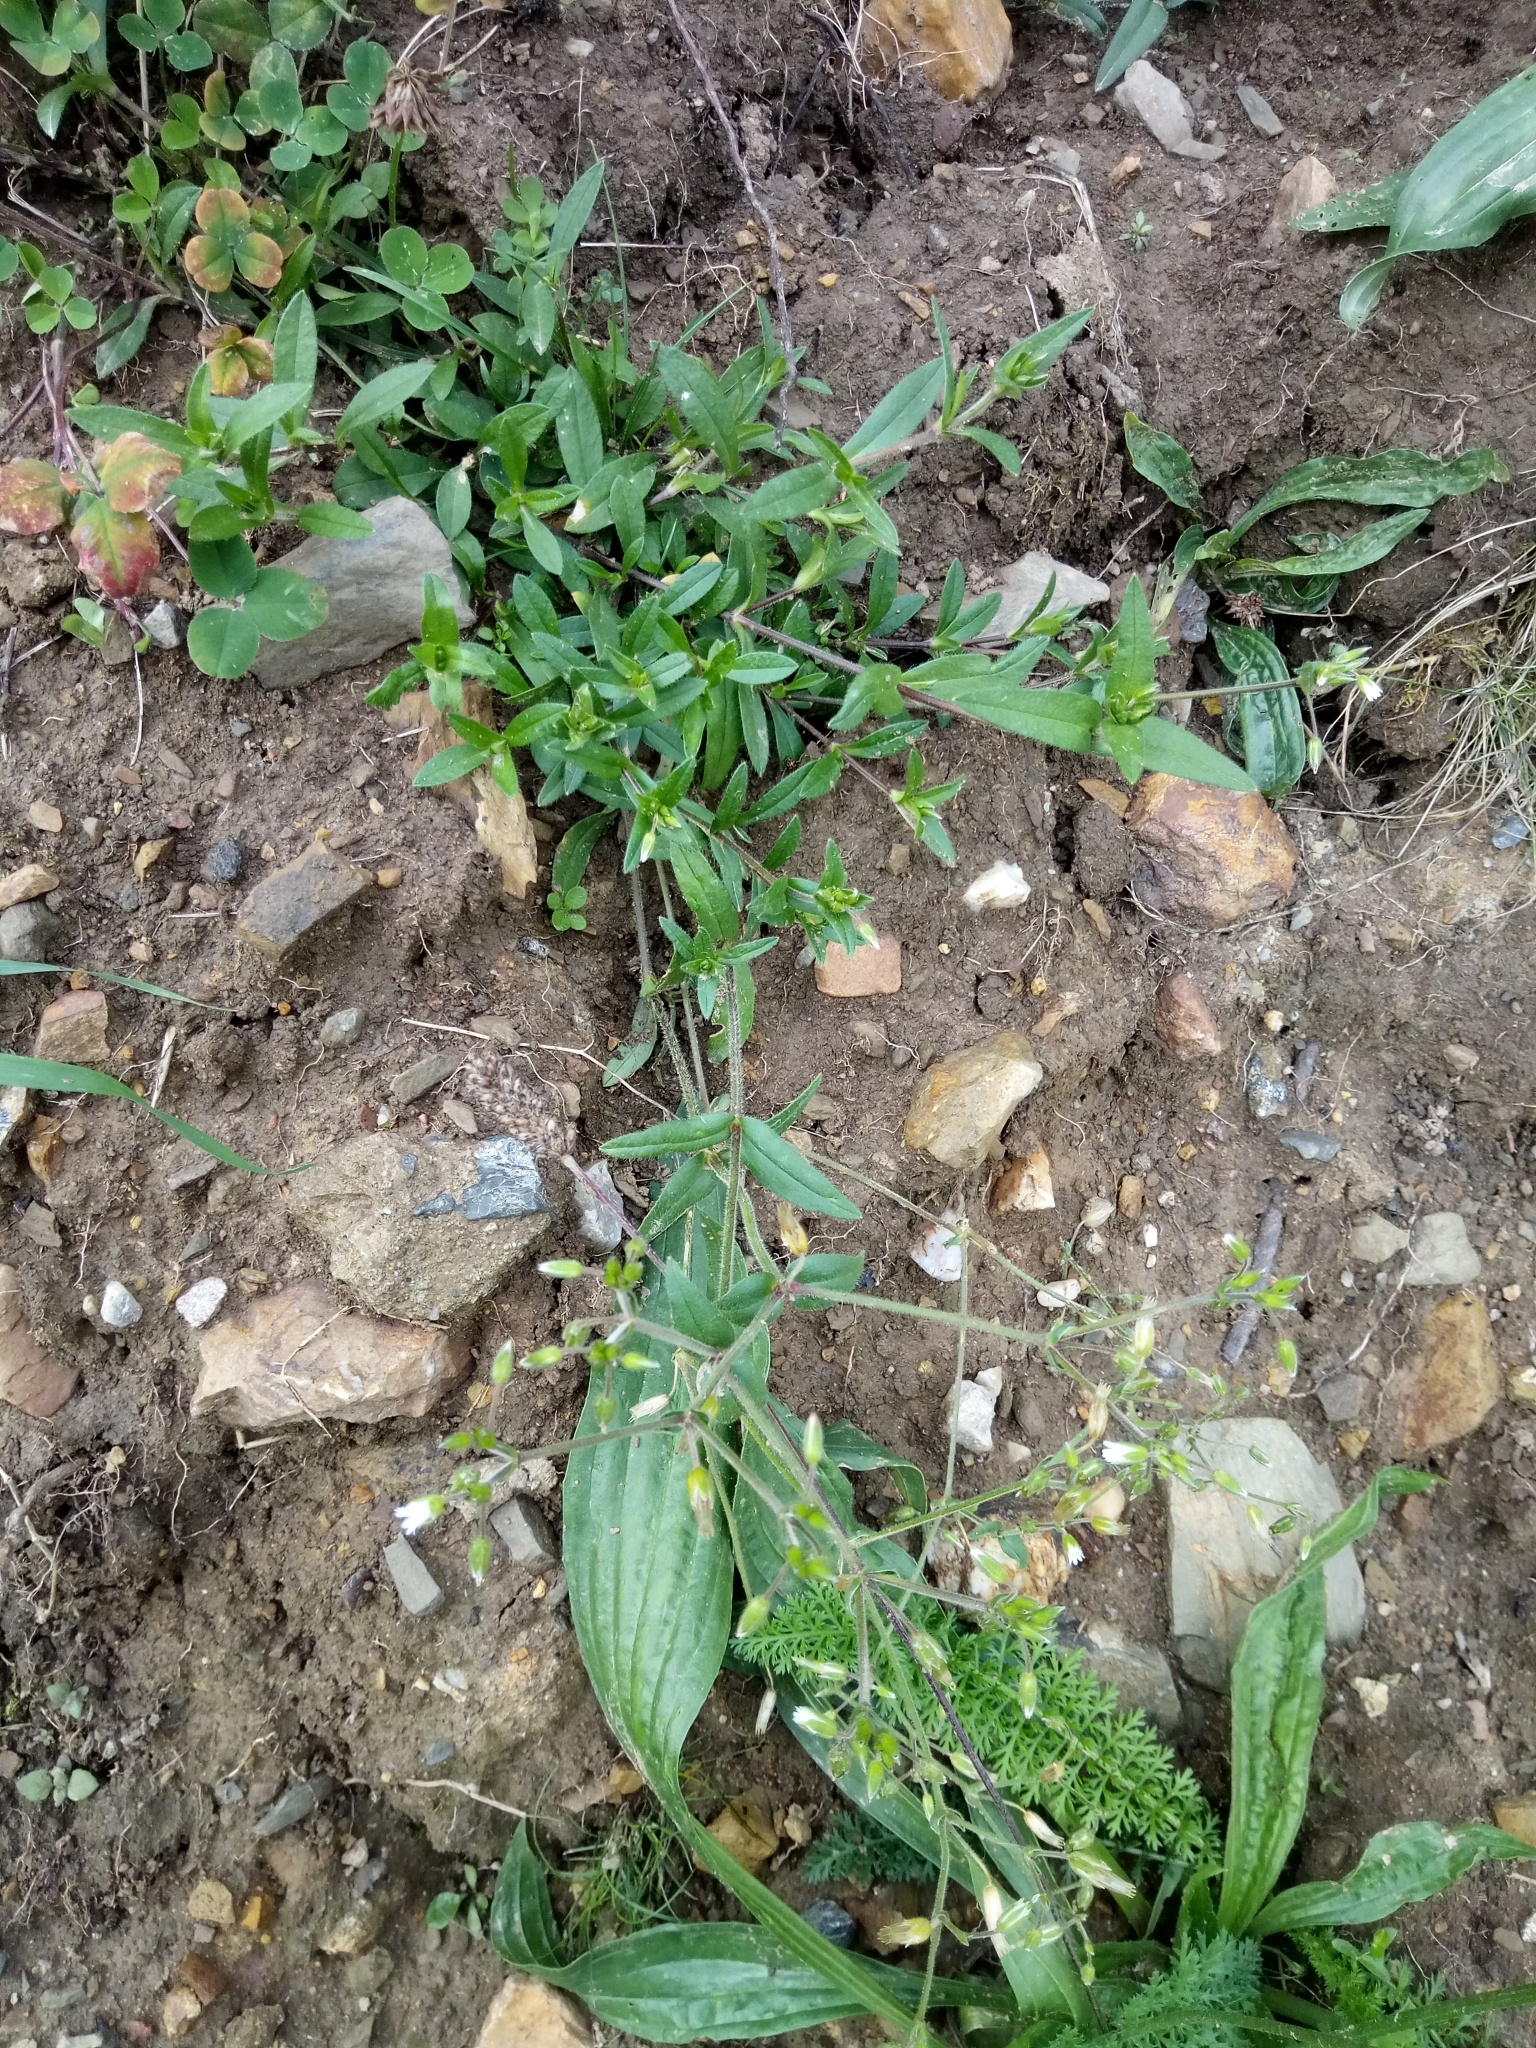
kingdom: Plantae
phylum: Tracheophyta
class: Magnoliopsida
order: Caryophyllales
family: Caryophyllaceae
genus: Cerastium
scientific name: Cerastium holosteoides
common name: Big chickweed
